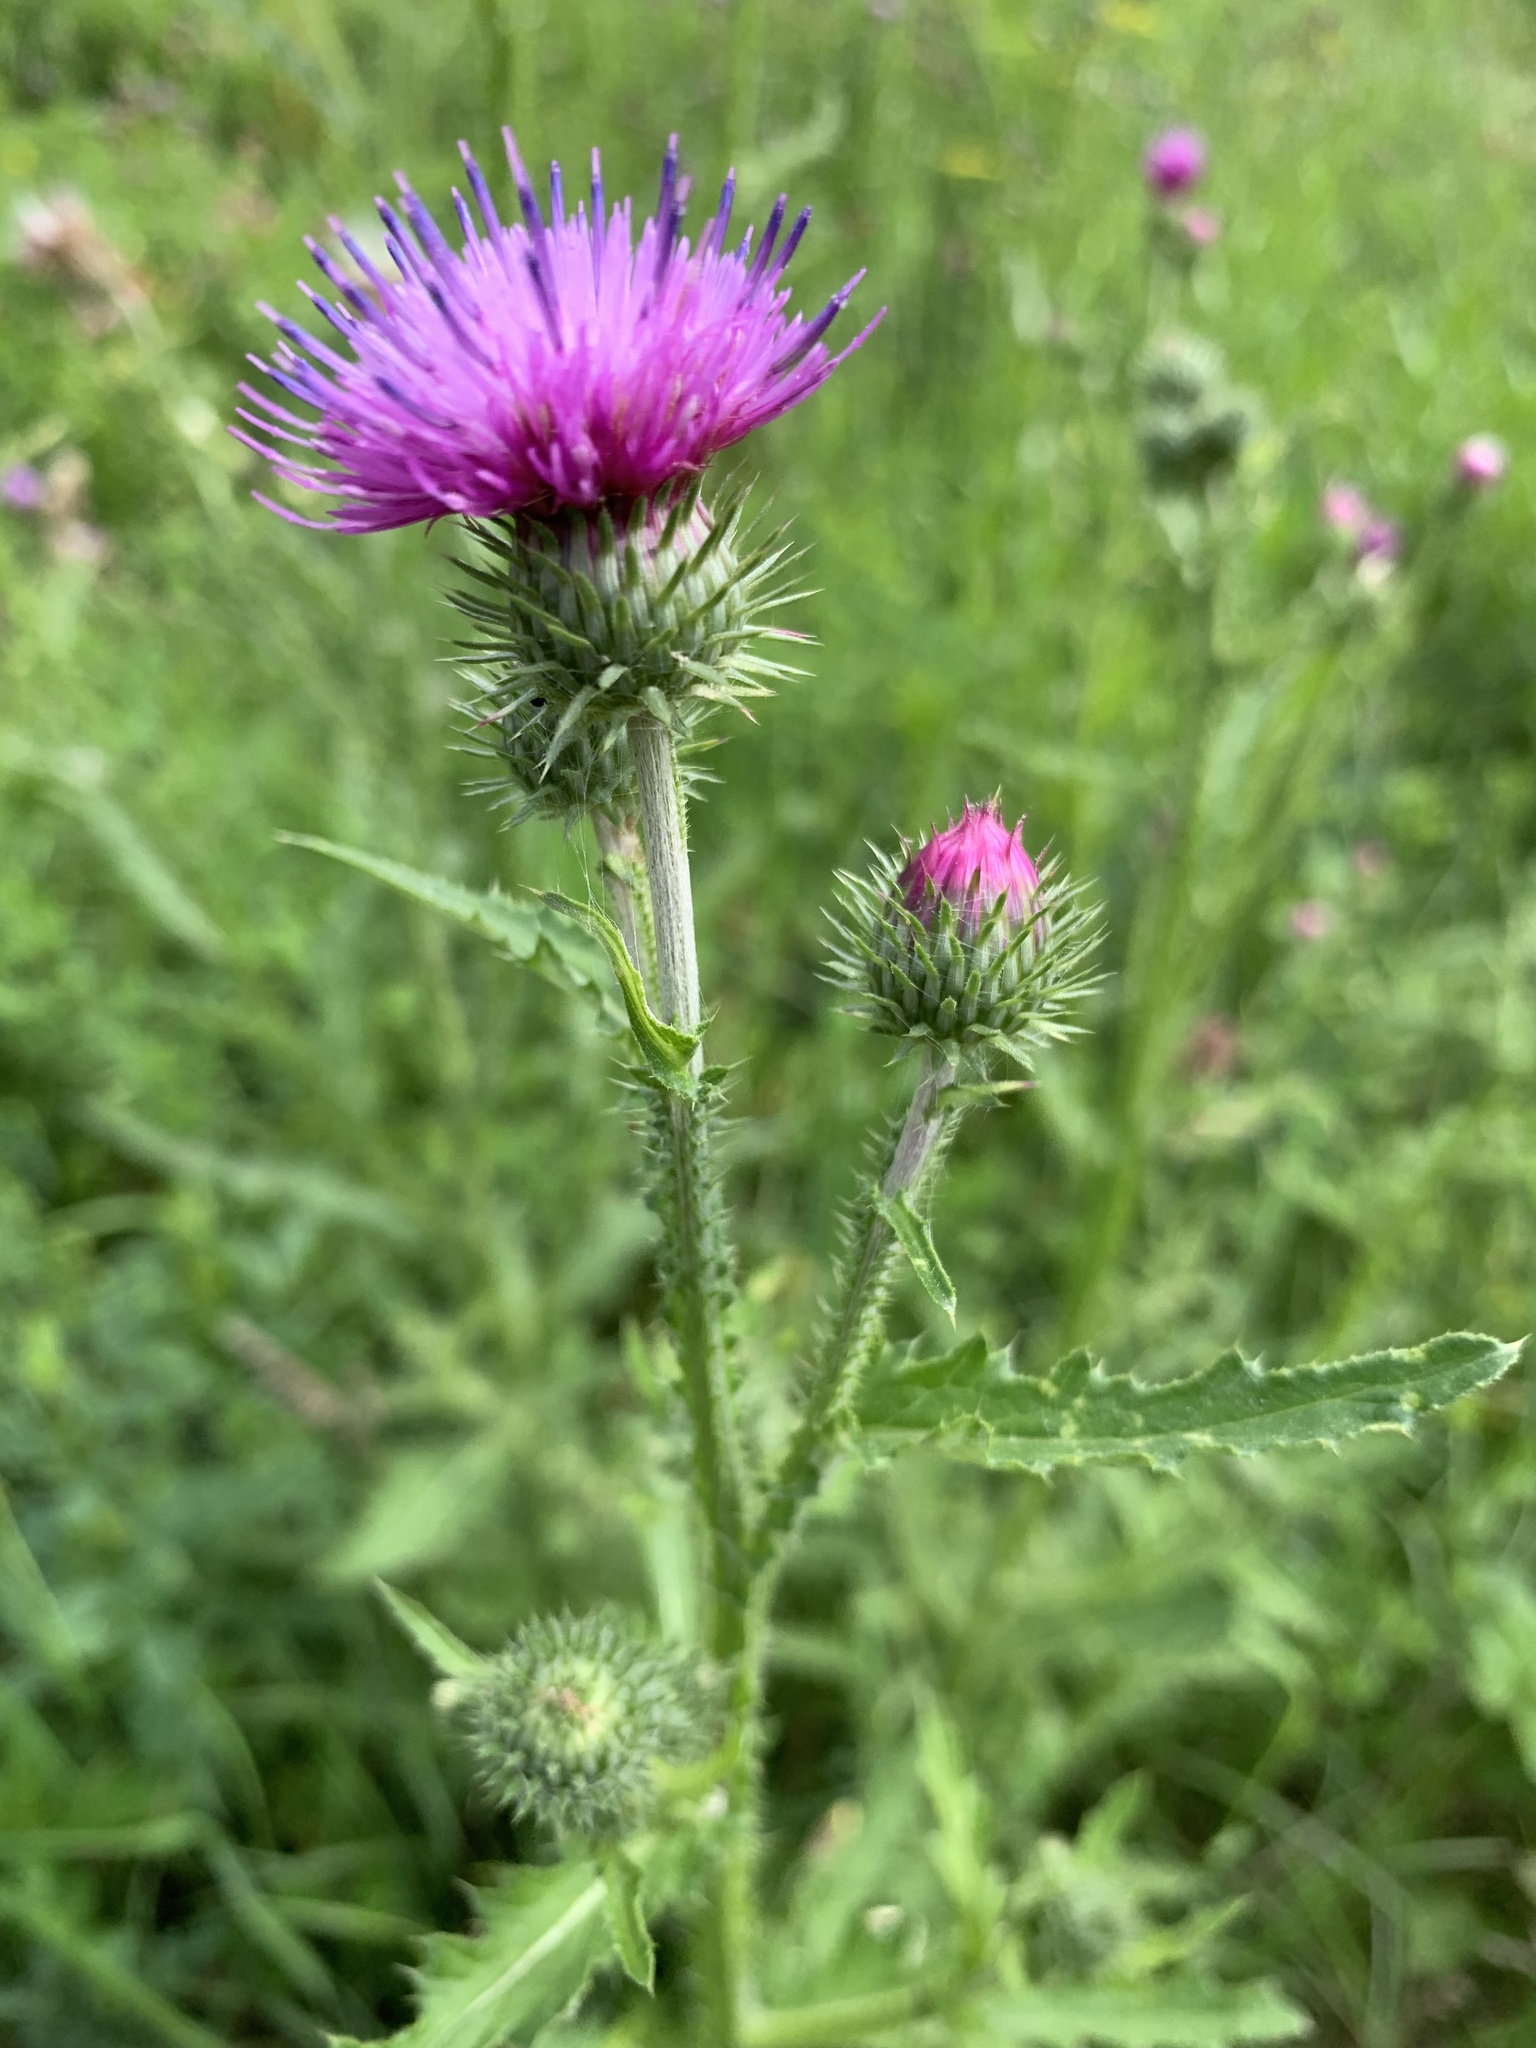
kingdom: Plantae
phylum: Tracheophyta
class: Magnoliopsida
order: Asterales
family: Asteraceae
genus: Carduus
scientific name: Carduus crispus
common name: Welted thistle
